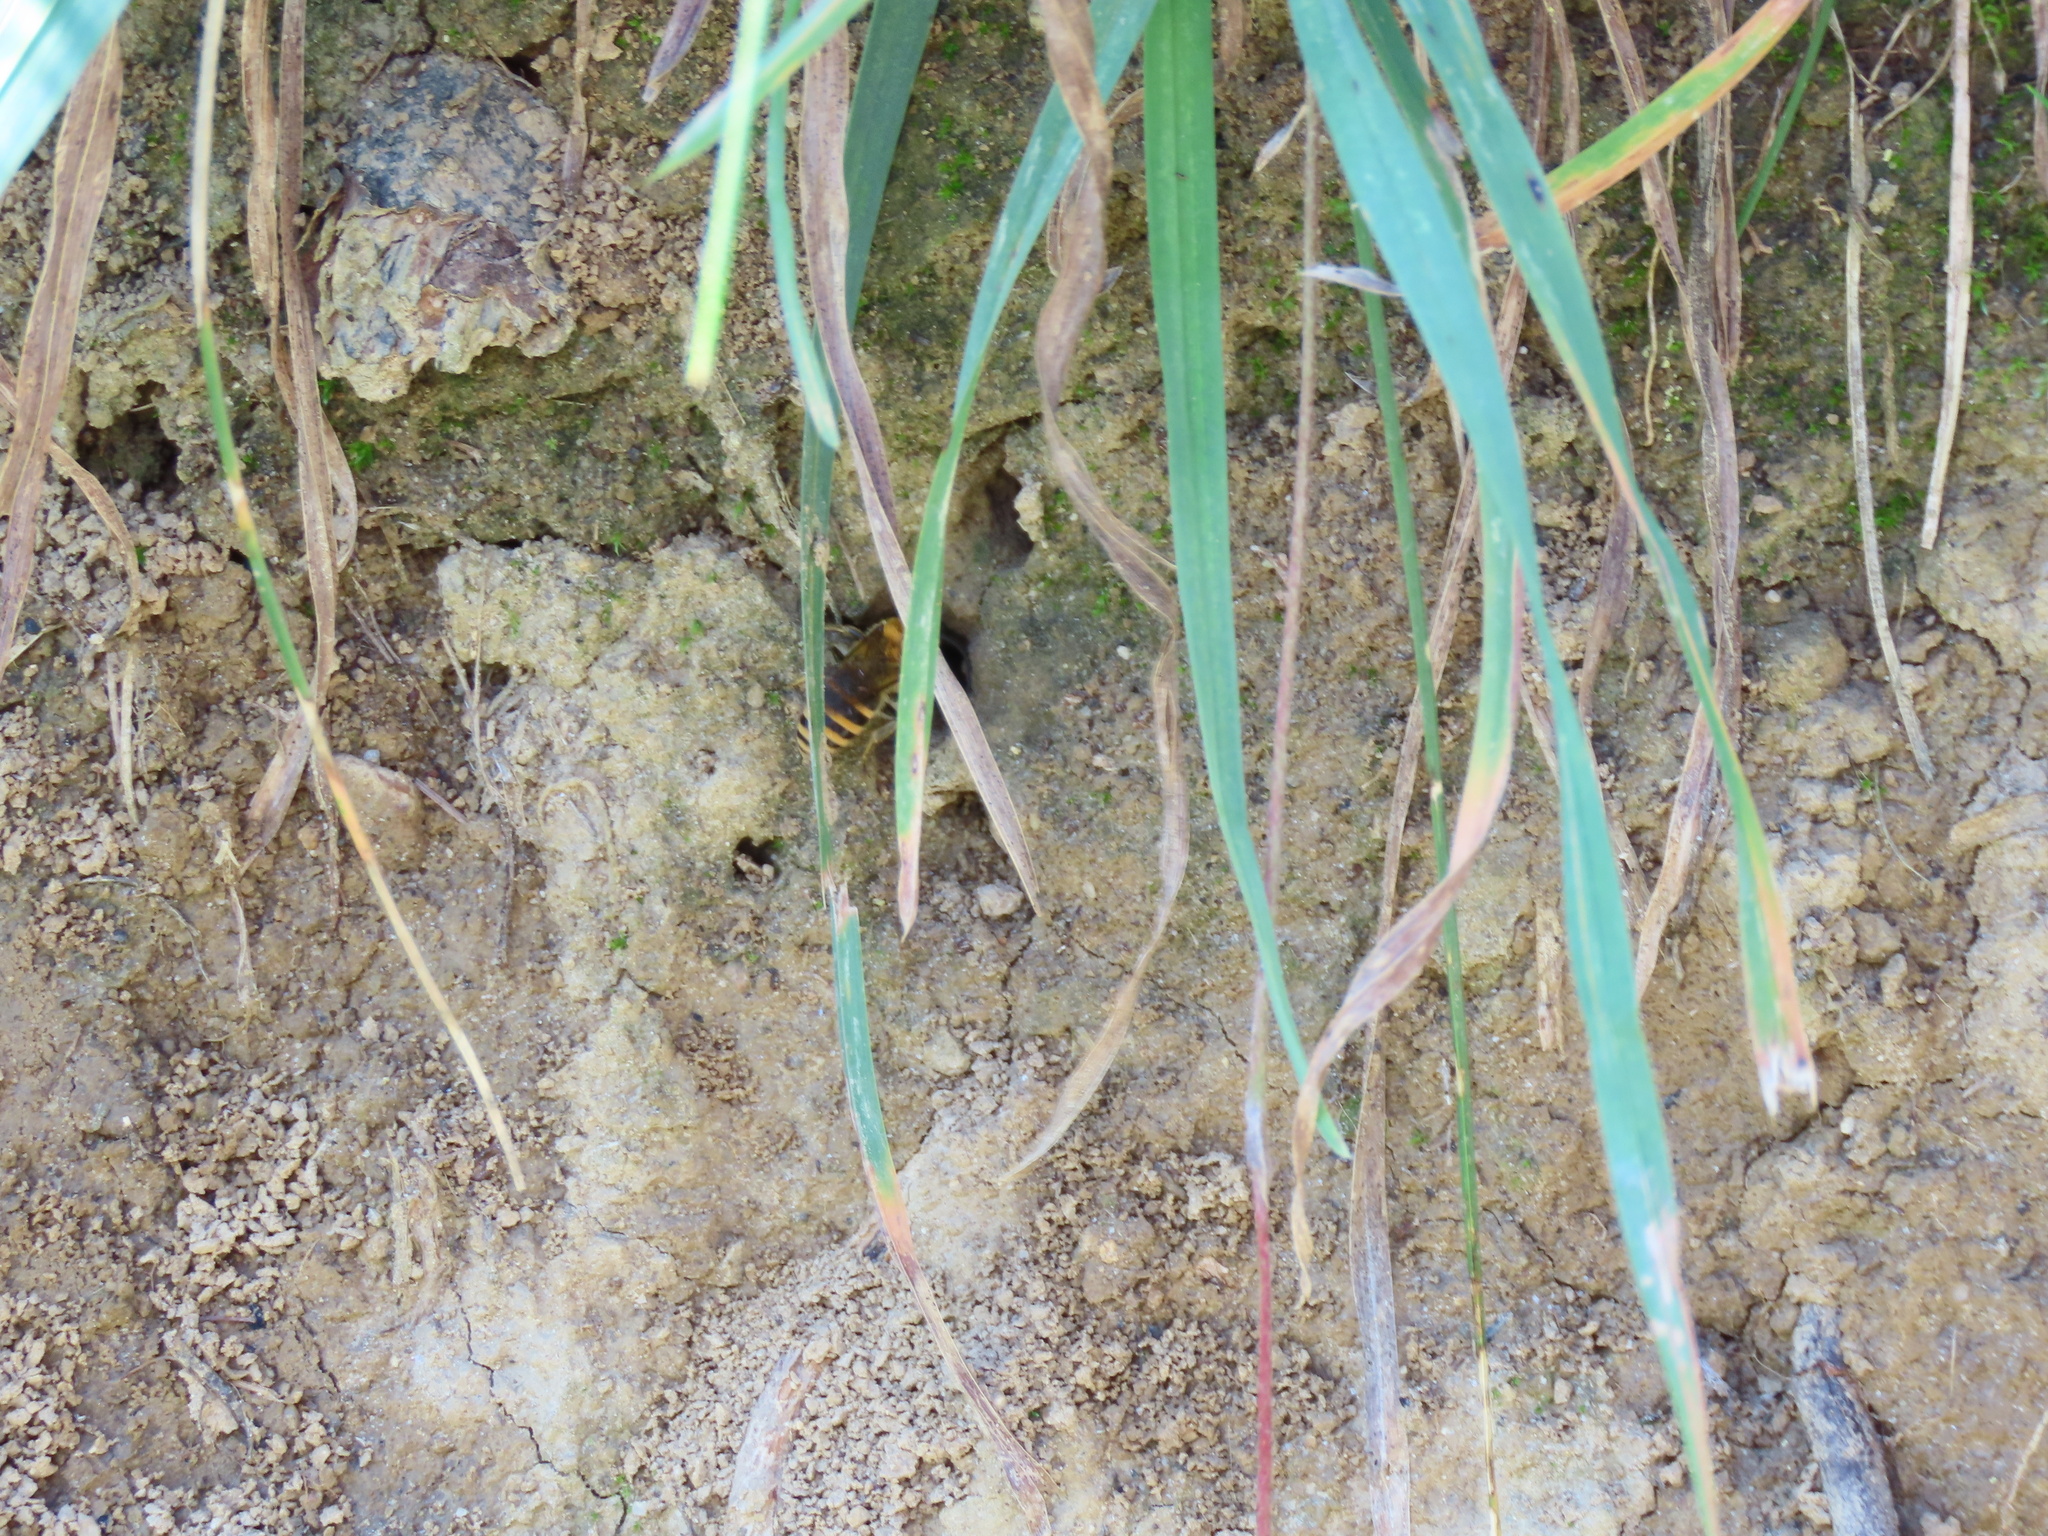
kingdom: Animalia
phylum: Arthropoda
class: Insecta
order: Hymenoptera
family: Colletidae
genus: Colletes
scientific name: Colletes hederae
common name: Ivy bee
